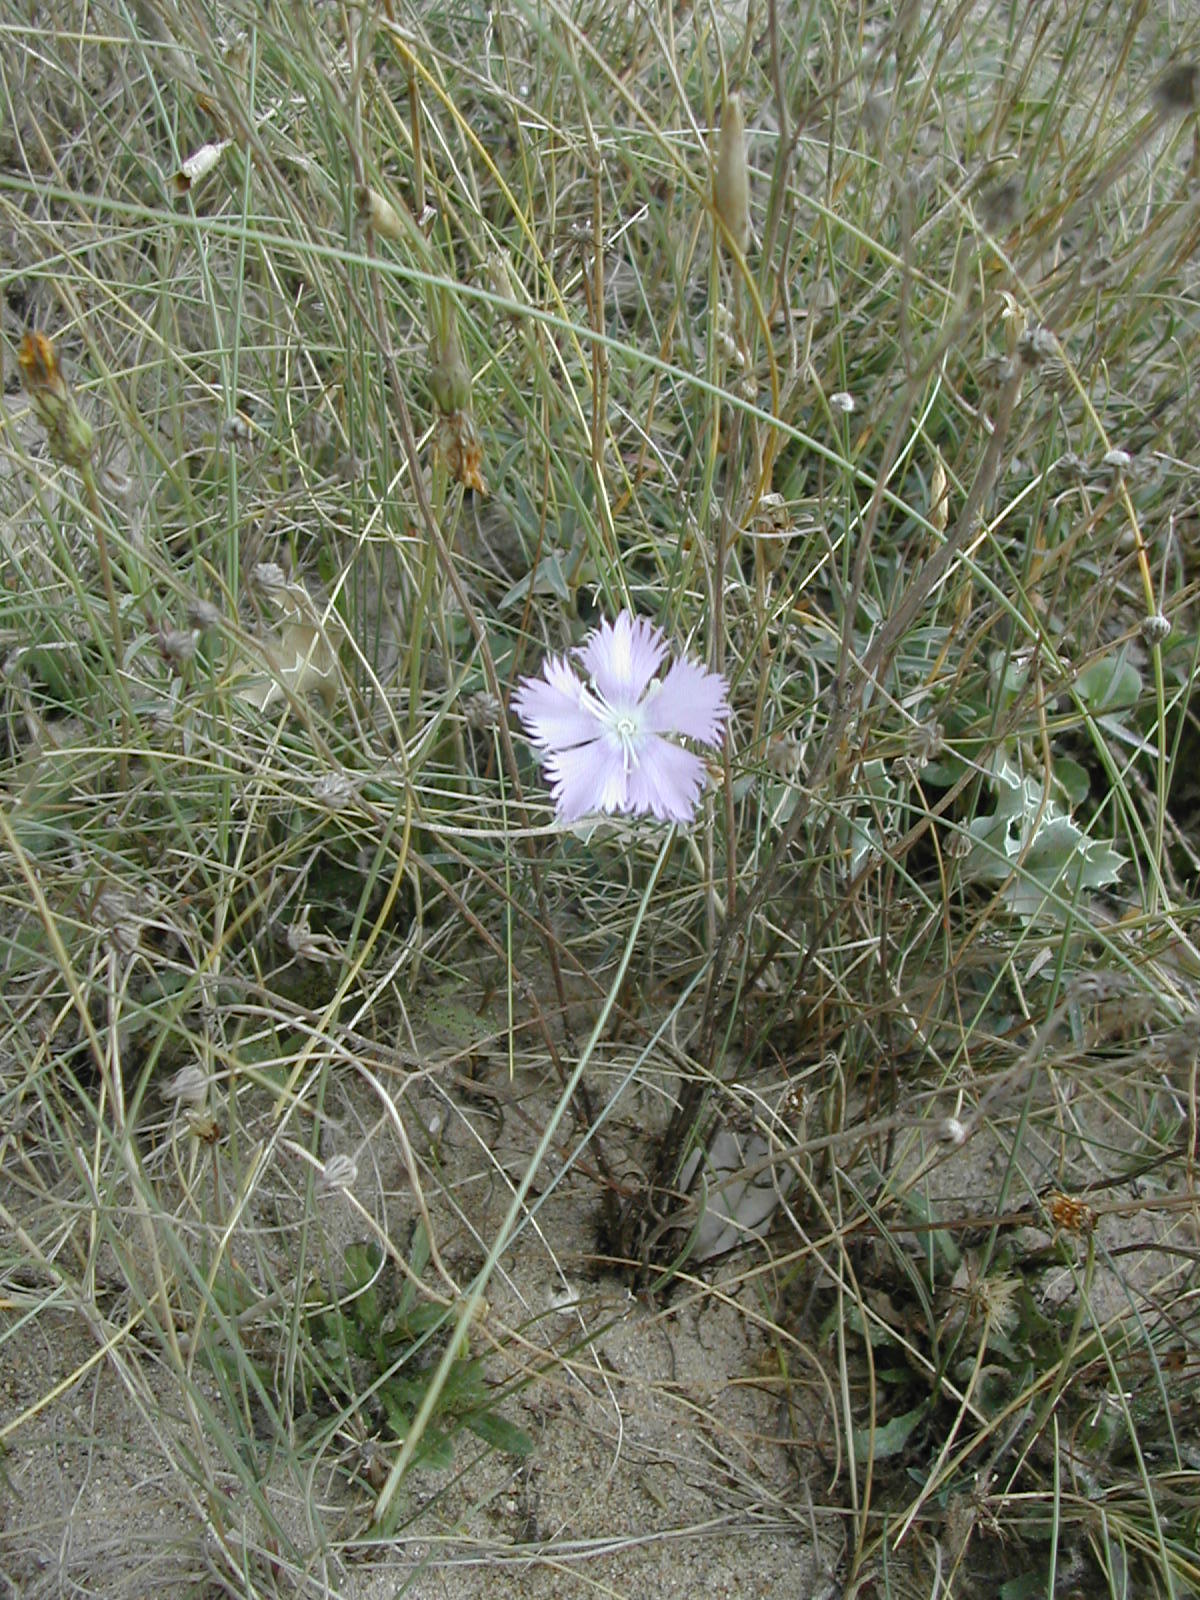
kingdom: Plantae
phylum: Tracheophyta
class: Magnoliopsida
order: Caryophyllales
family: Caryophyllaceae
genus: Dianthus
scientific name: Dianthus gallicus
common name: Jersey pink
